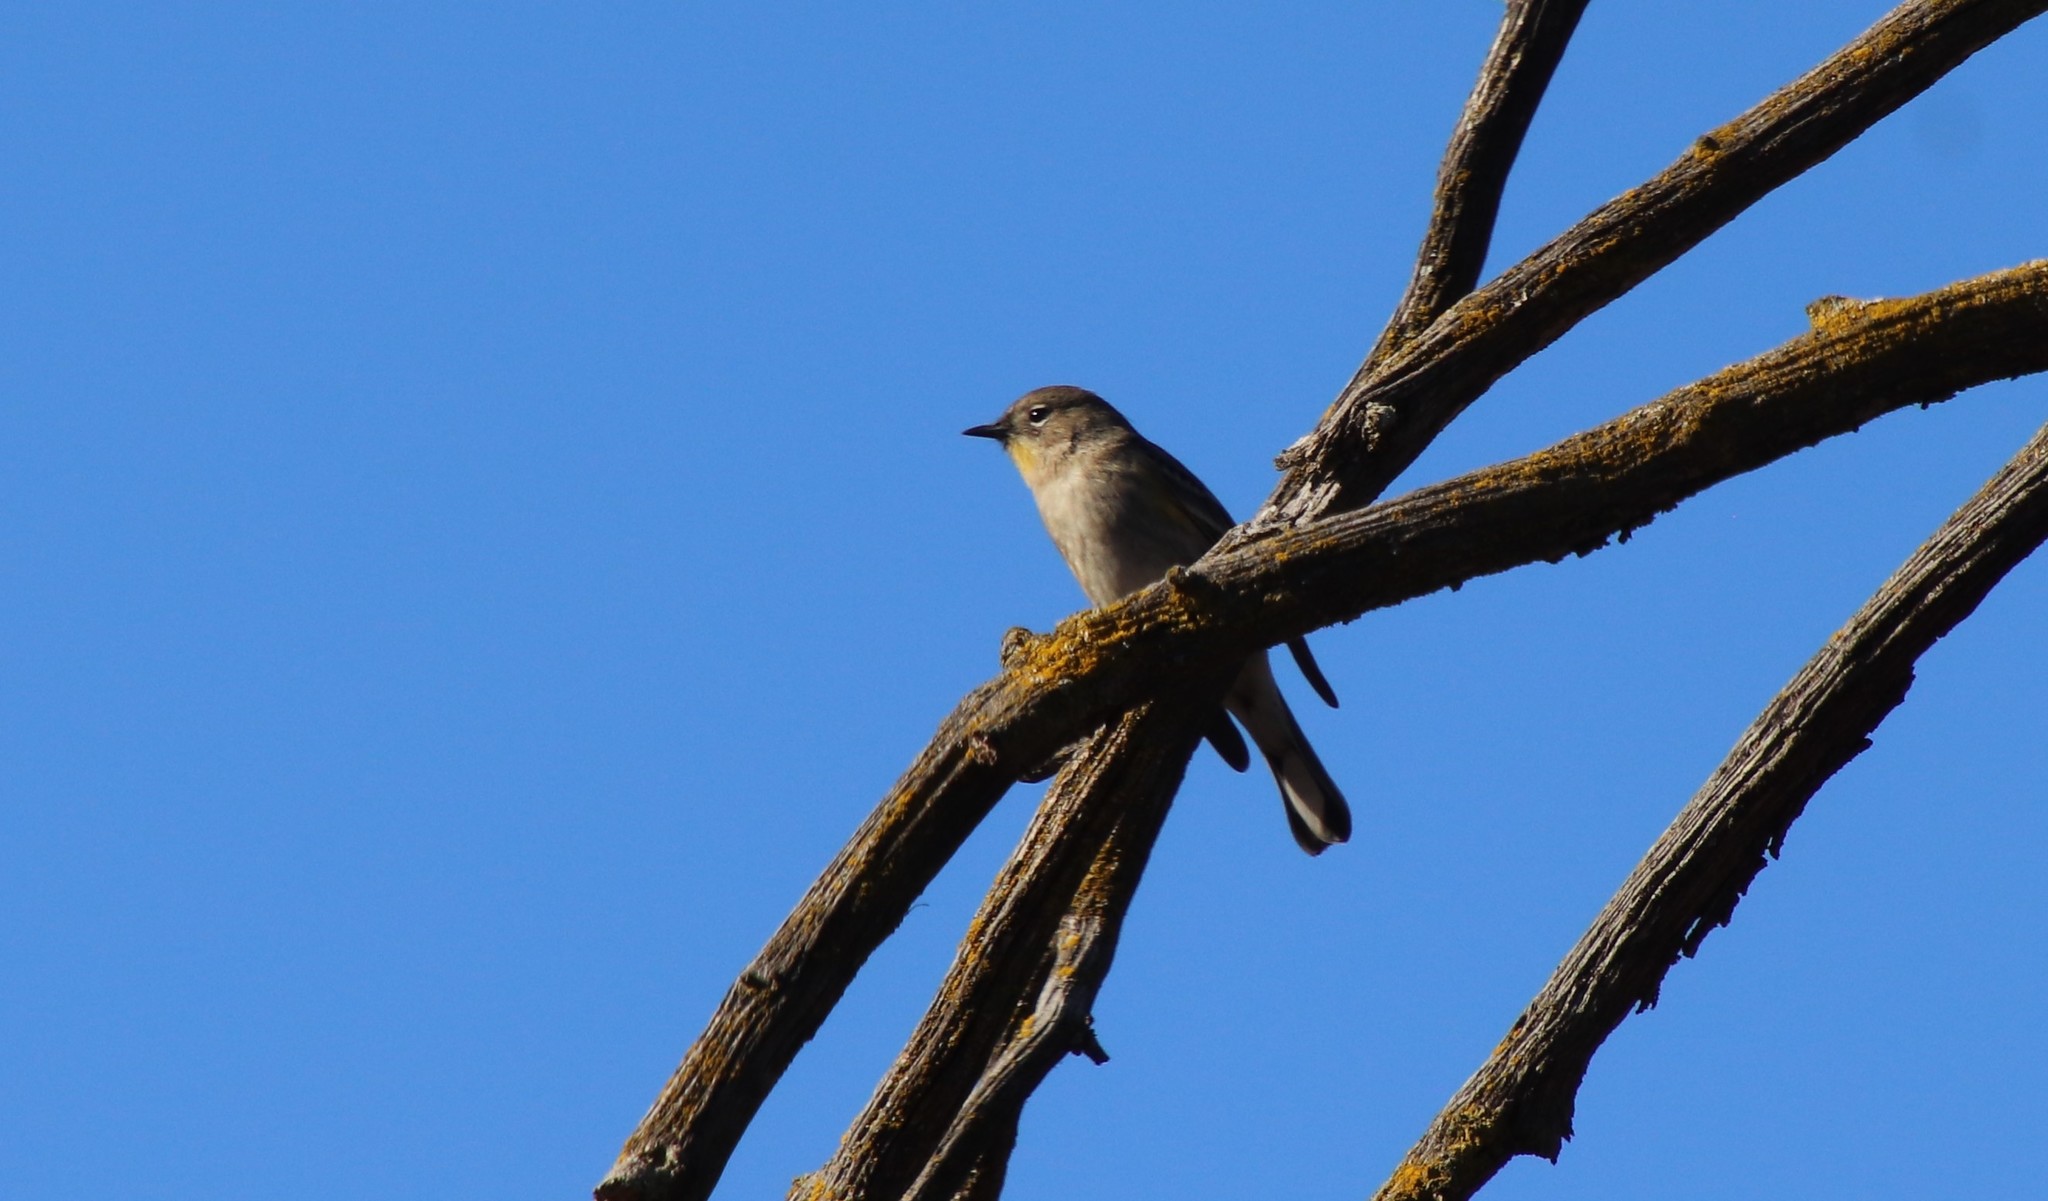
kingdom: Animalia
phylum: Chordata
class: Aves
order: Passeriformes
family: Parulidae
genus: Setophaga
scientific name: Setophaga auduboni
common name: Audubon's warbler
